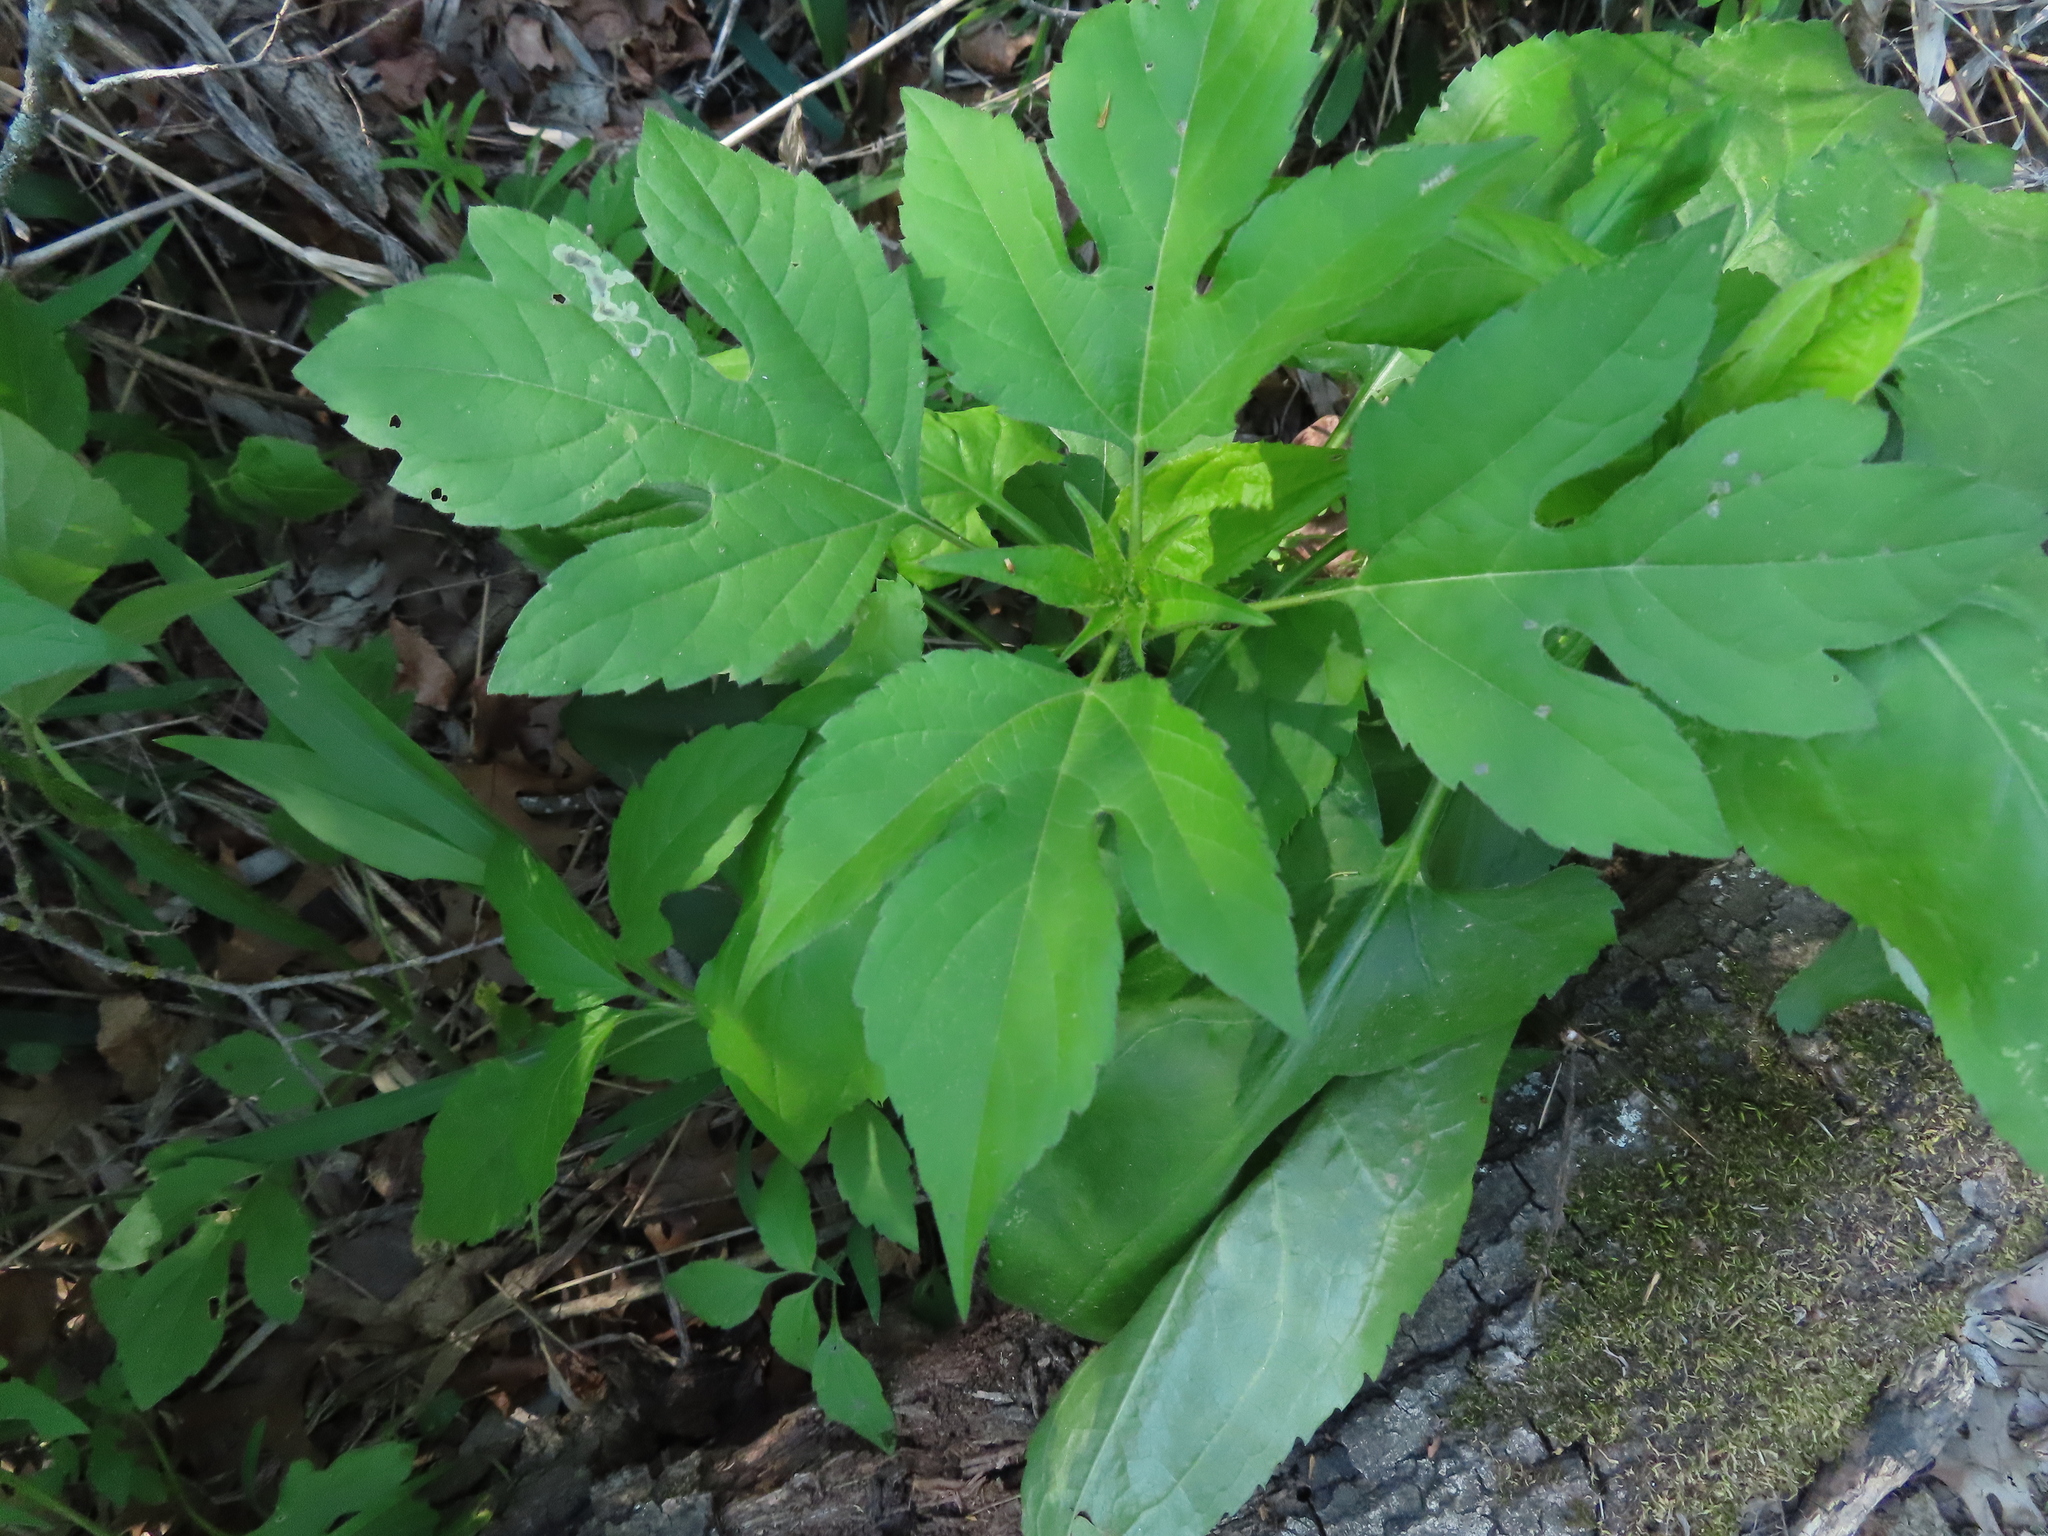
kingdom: Plantae
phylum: Tracheophyta
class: Magnoliopsida
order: Asterales
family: Asteraceae
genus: Ambrosia
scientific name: Ambrosia trifida
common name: Giant ragweed
